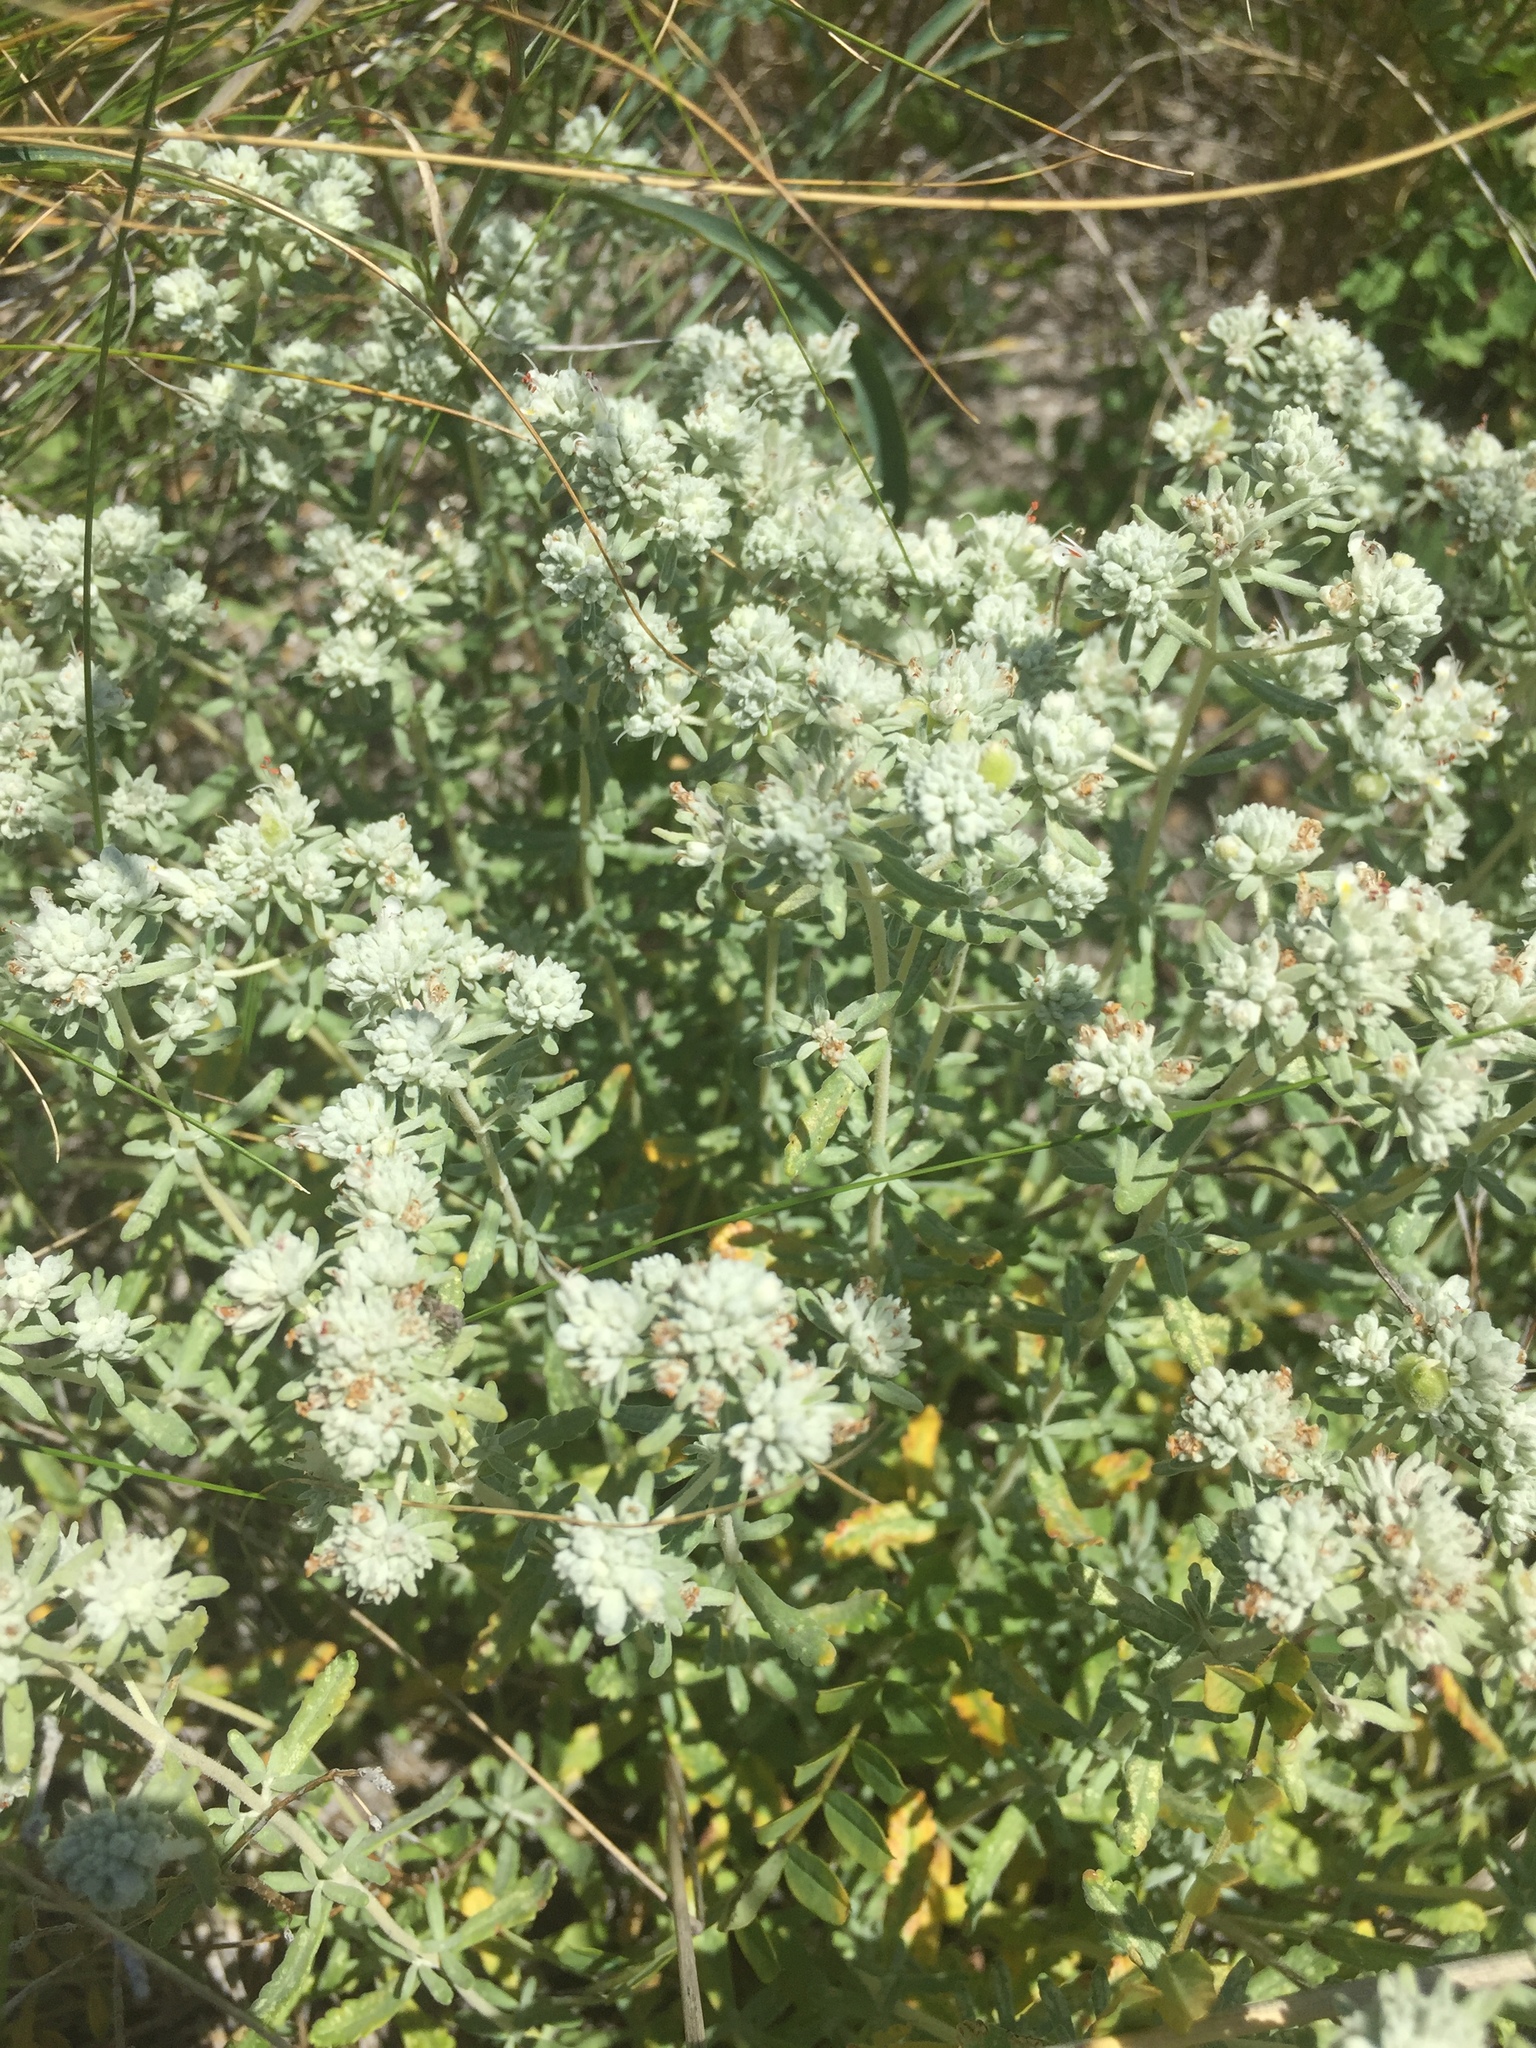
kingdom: Plantae
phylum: Tracheophyta
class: Magnoliopsida
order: Lamiales
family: Lamiaceae
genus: Teucrium
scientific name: Teucrium polium
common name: Poley
